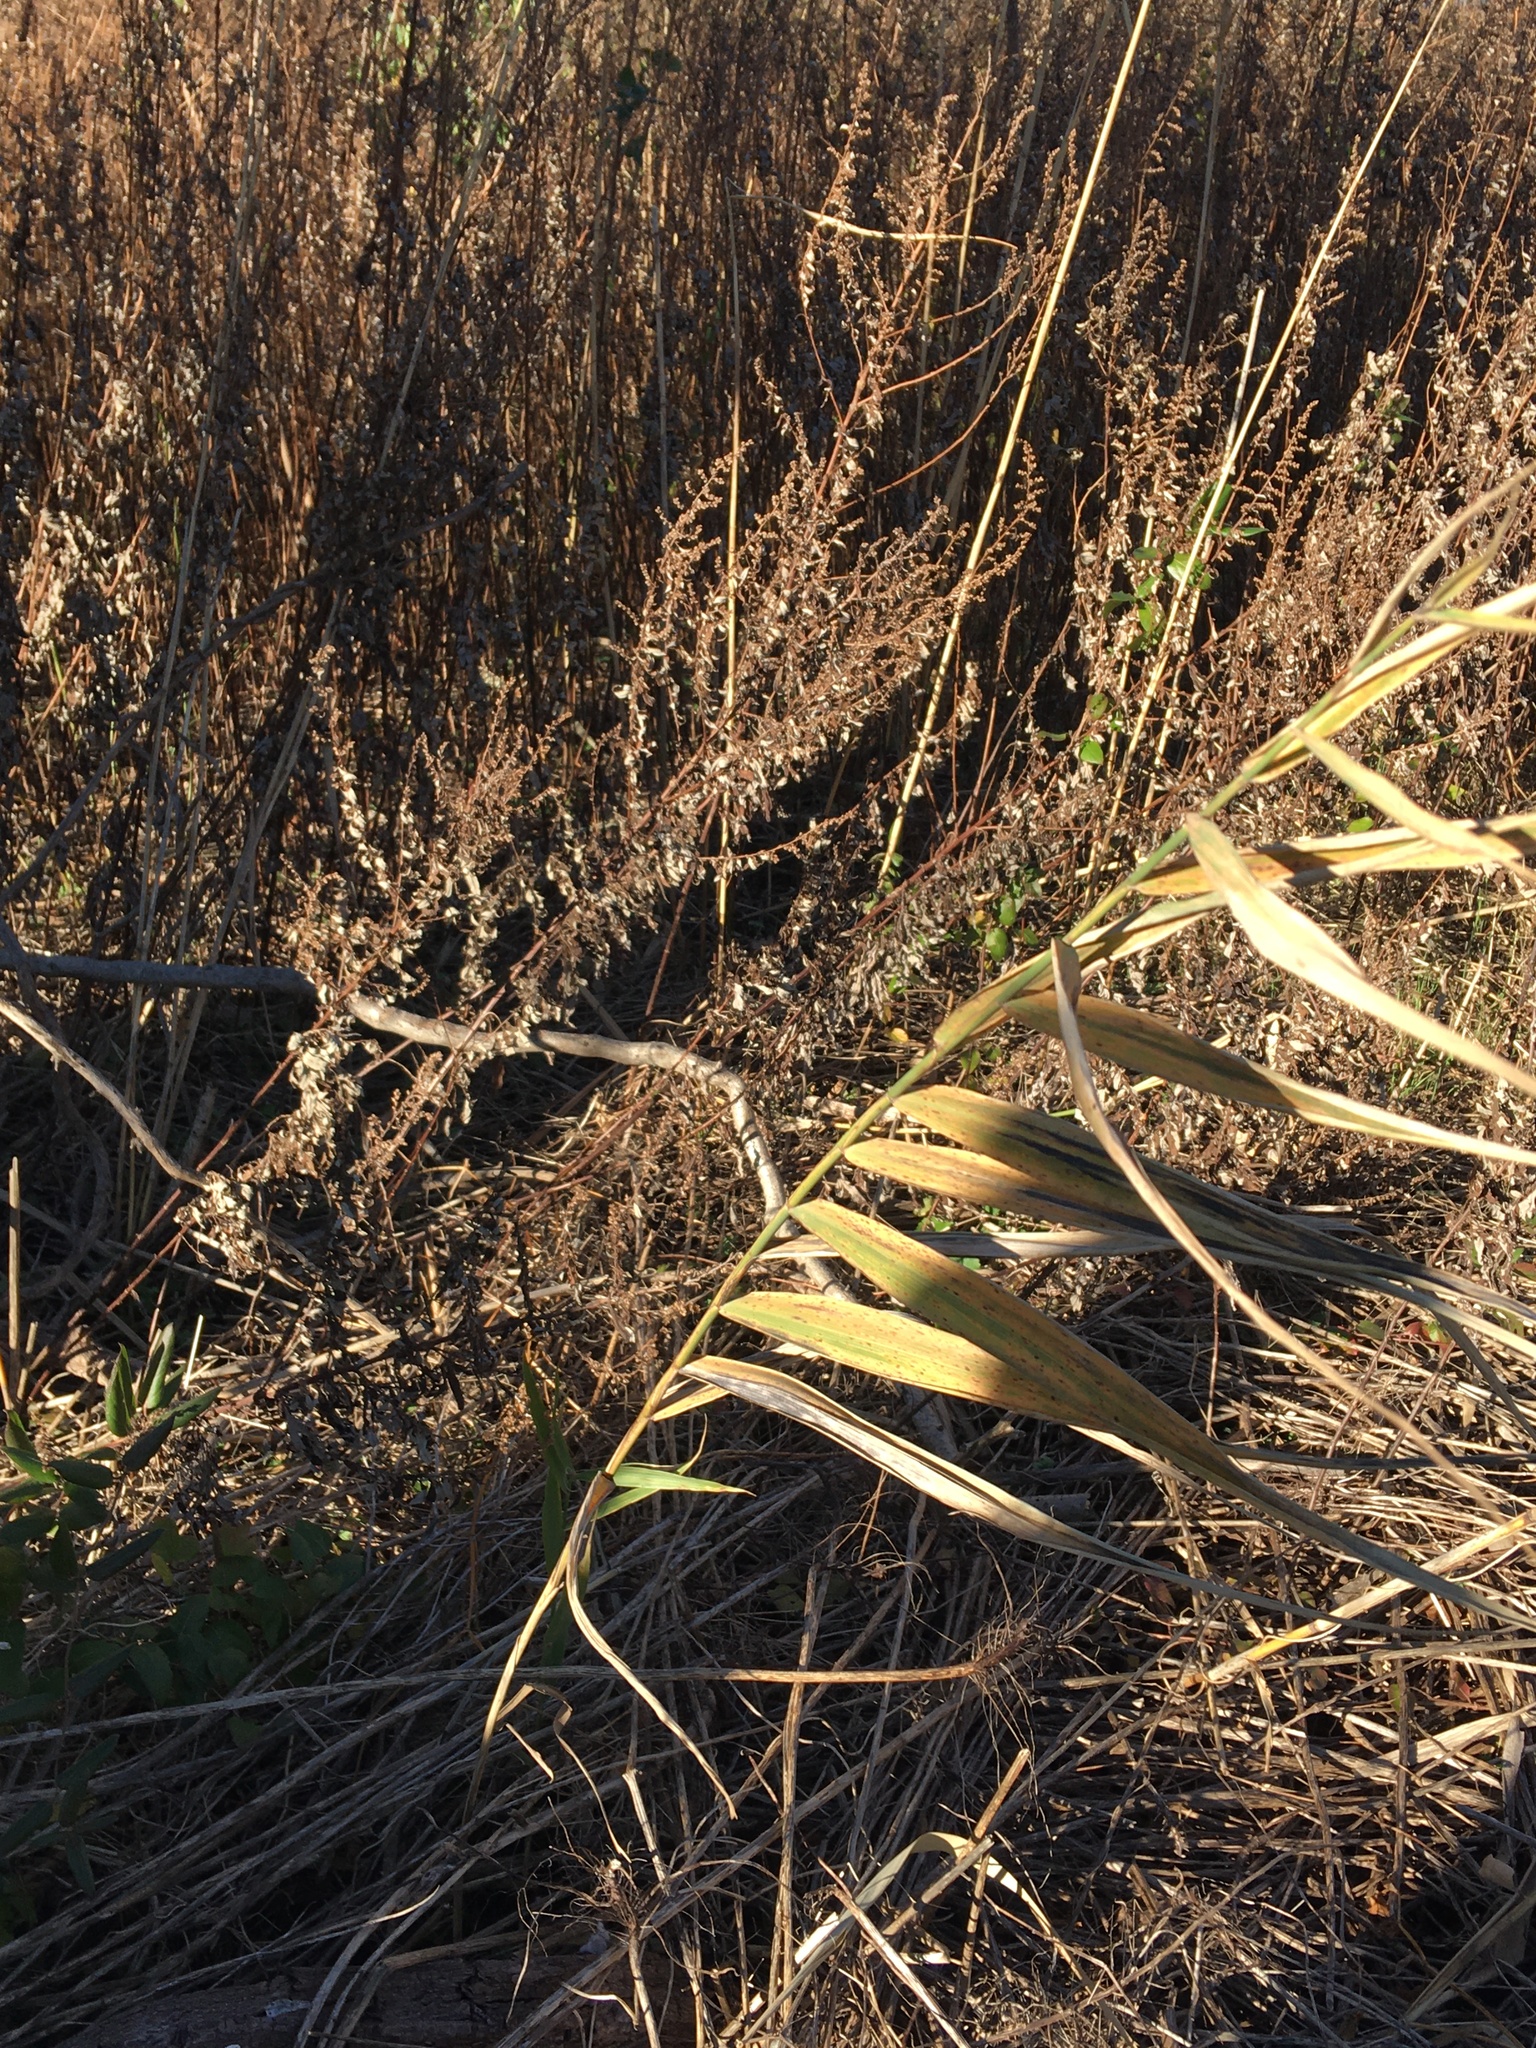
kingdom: Plantae
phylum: Tracheophyta
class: Liliopsida
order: Poales
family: Poaceae
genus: Phragmites
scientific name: Phragmites australis
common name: Common reed
